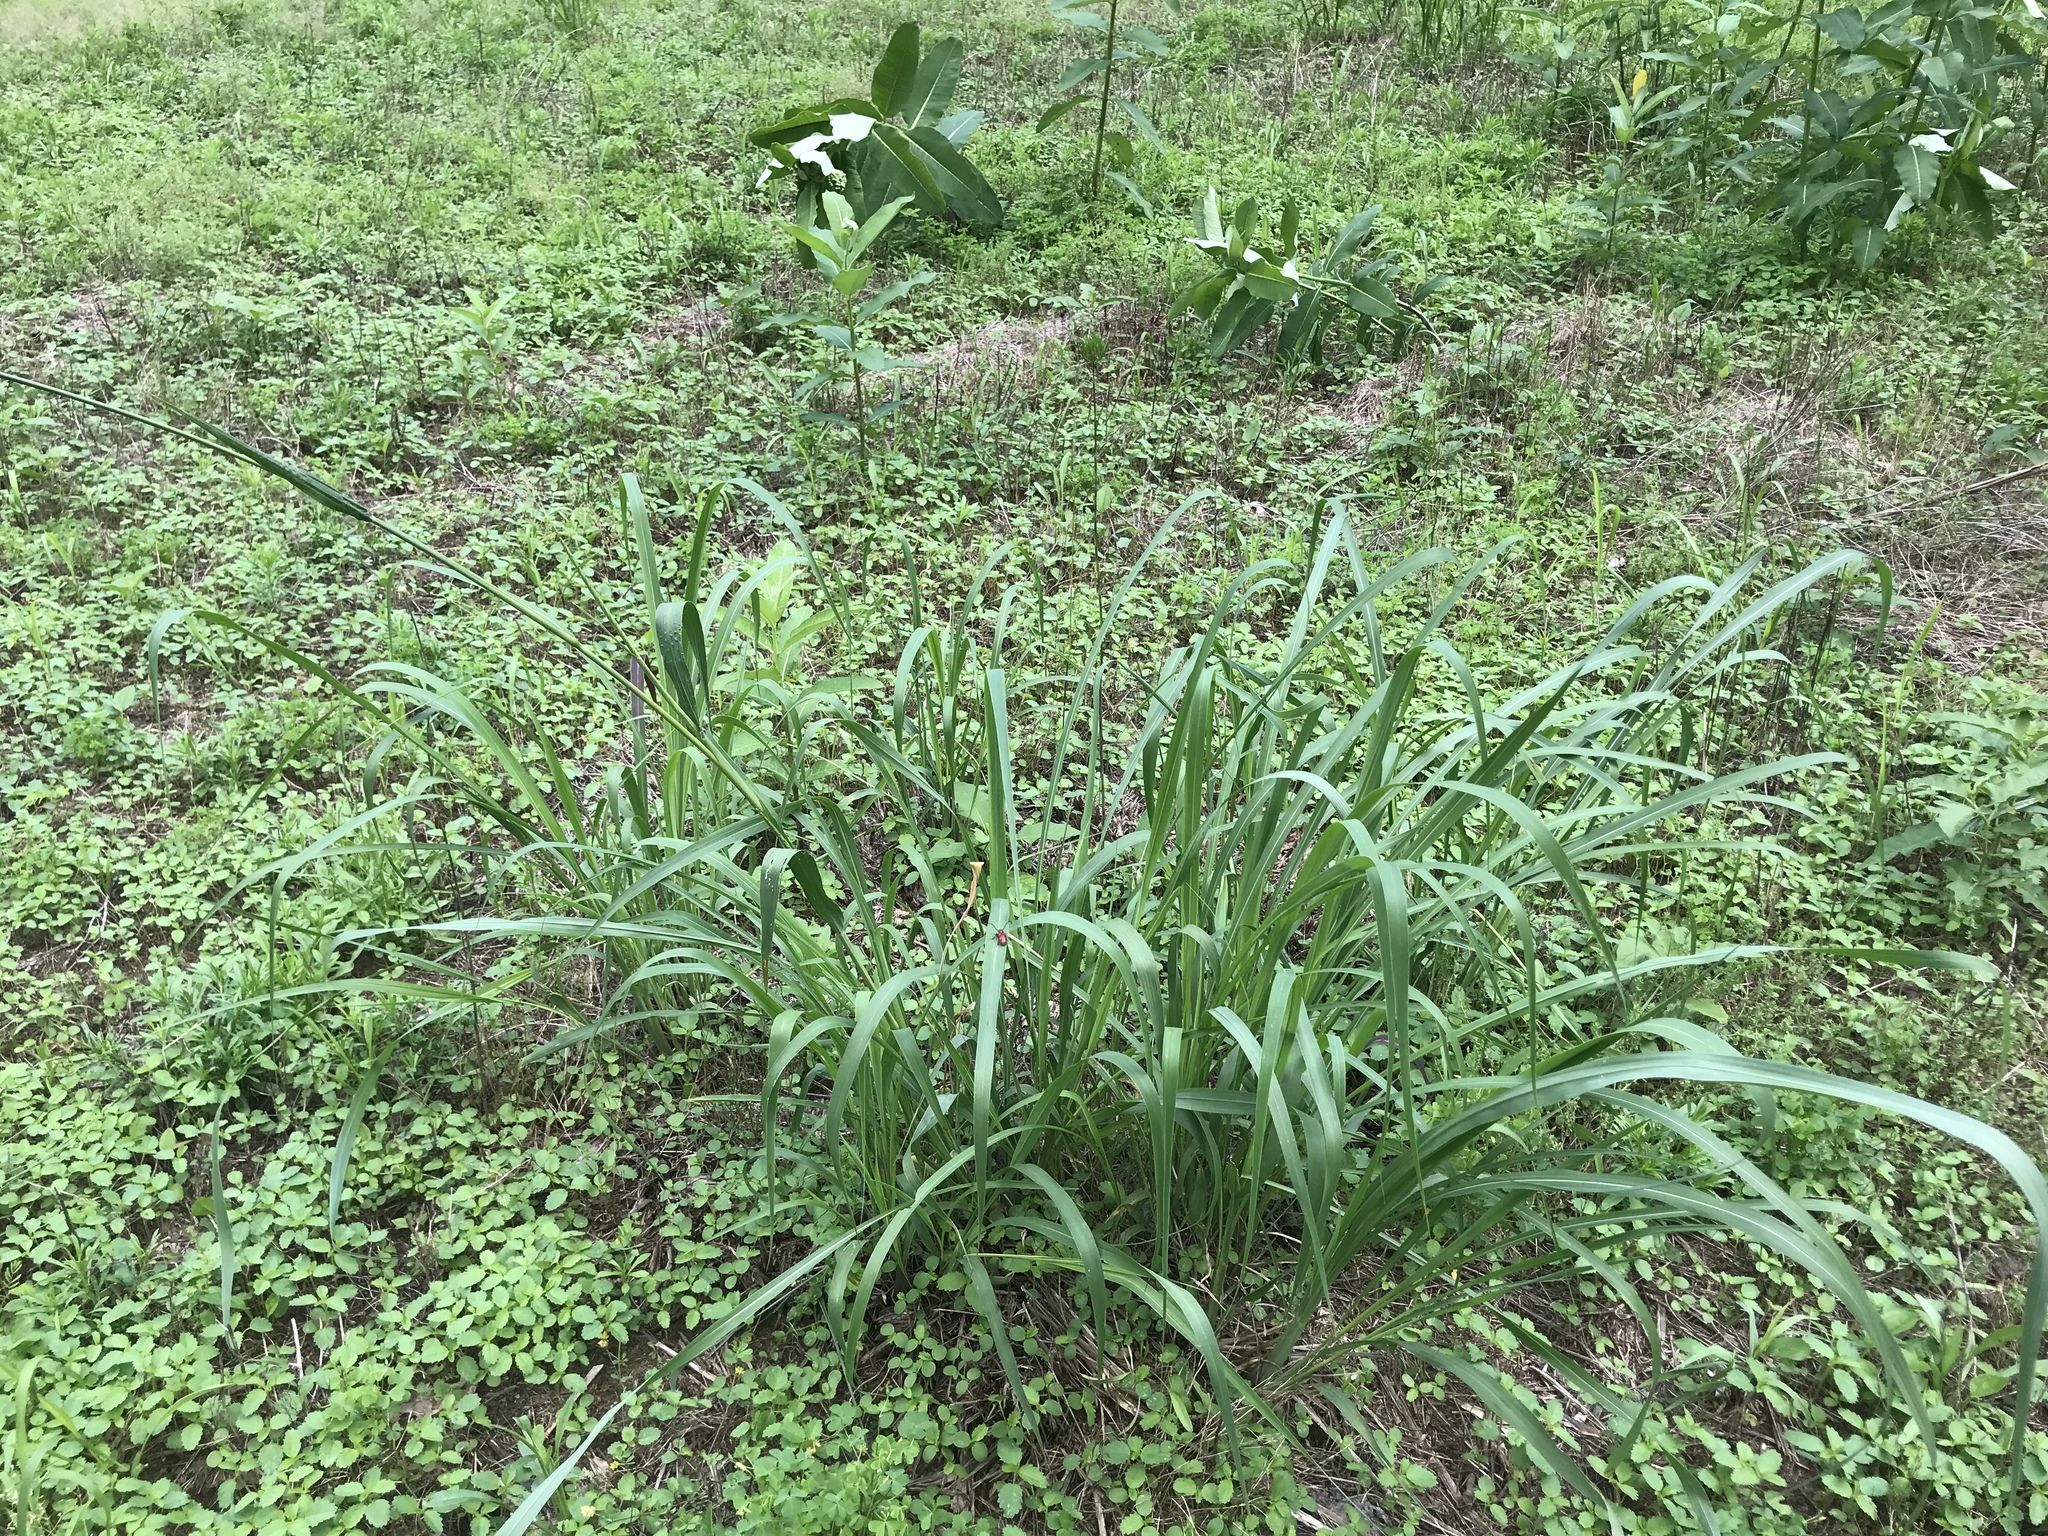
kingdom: Plantae
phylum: Tracheophyta
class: Liliopsida
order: Poales
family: Poaceae
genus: Tripsacum
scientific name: Tripsacum dactyloides
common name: Buffalo-grass
